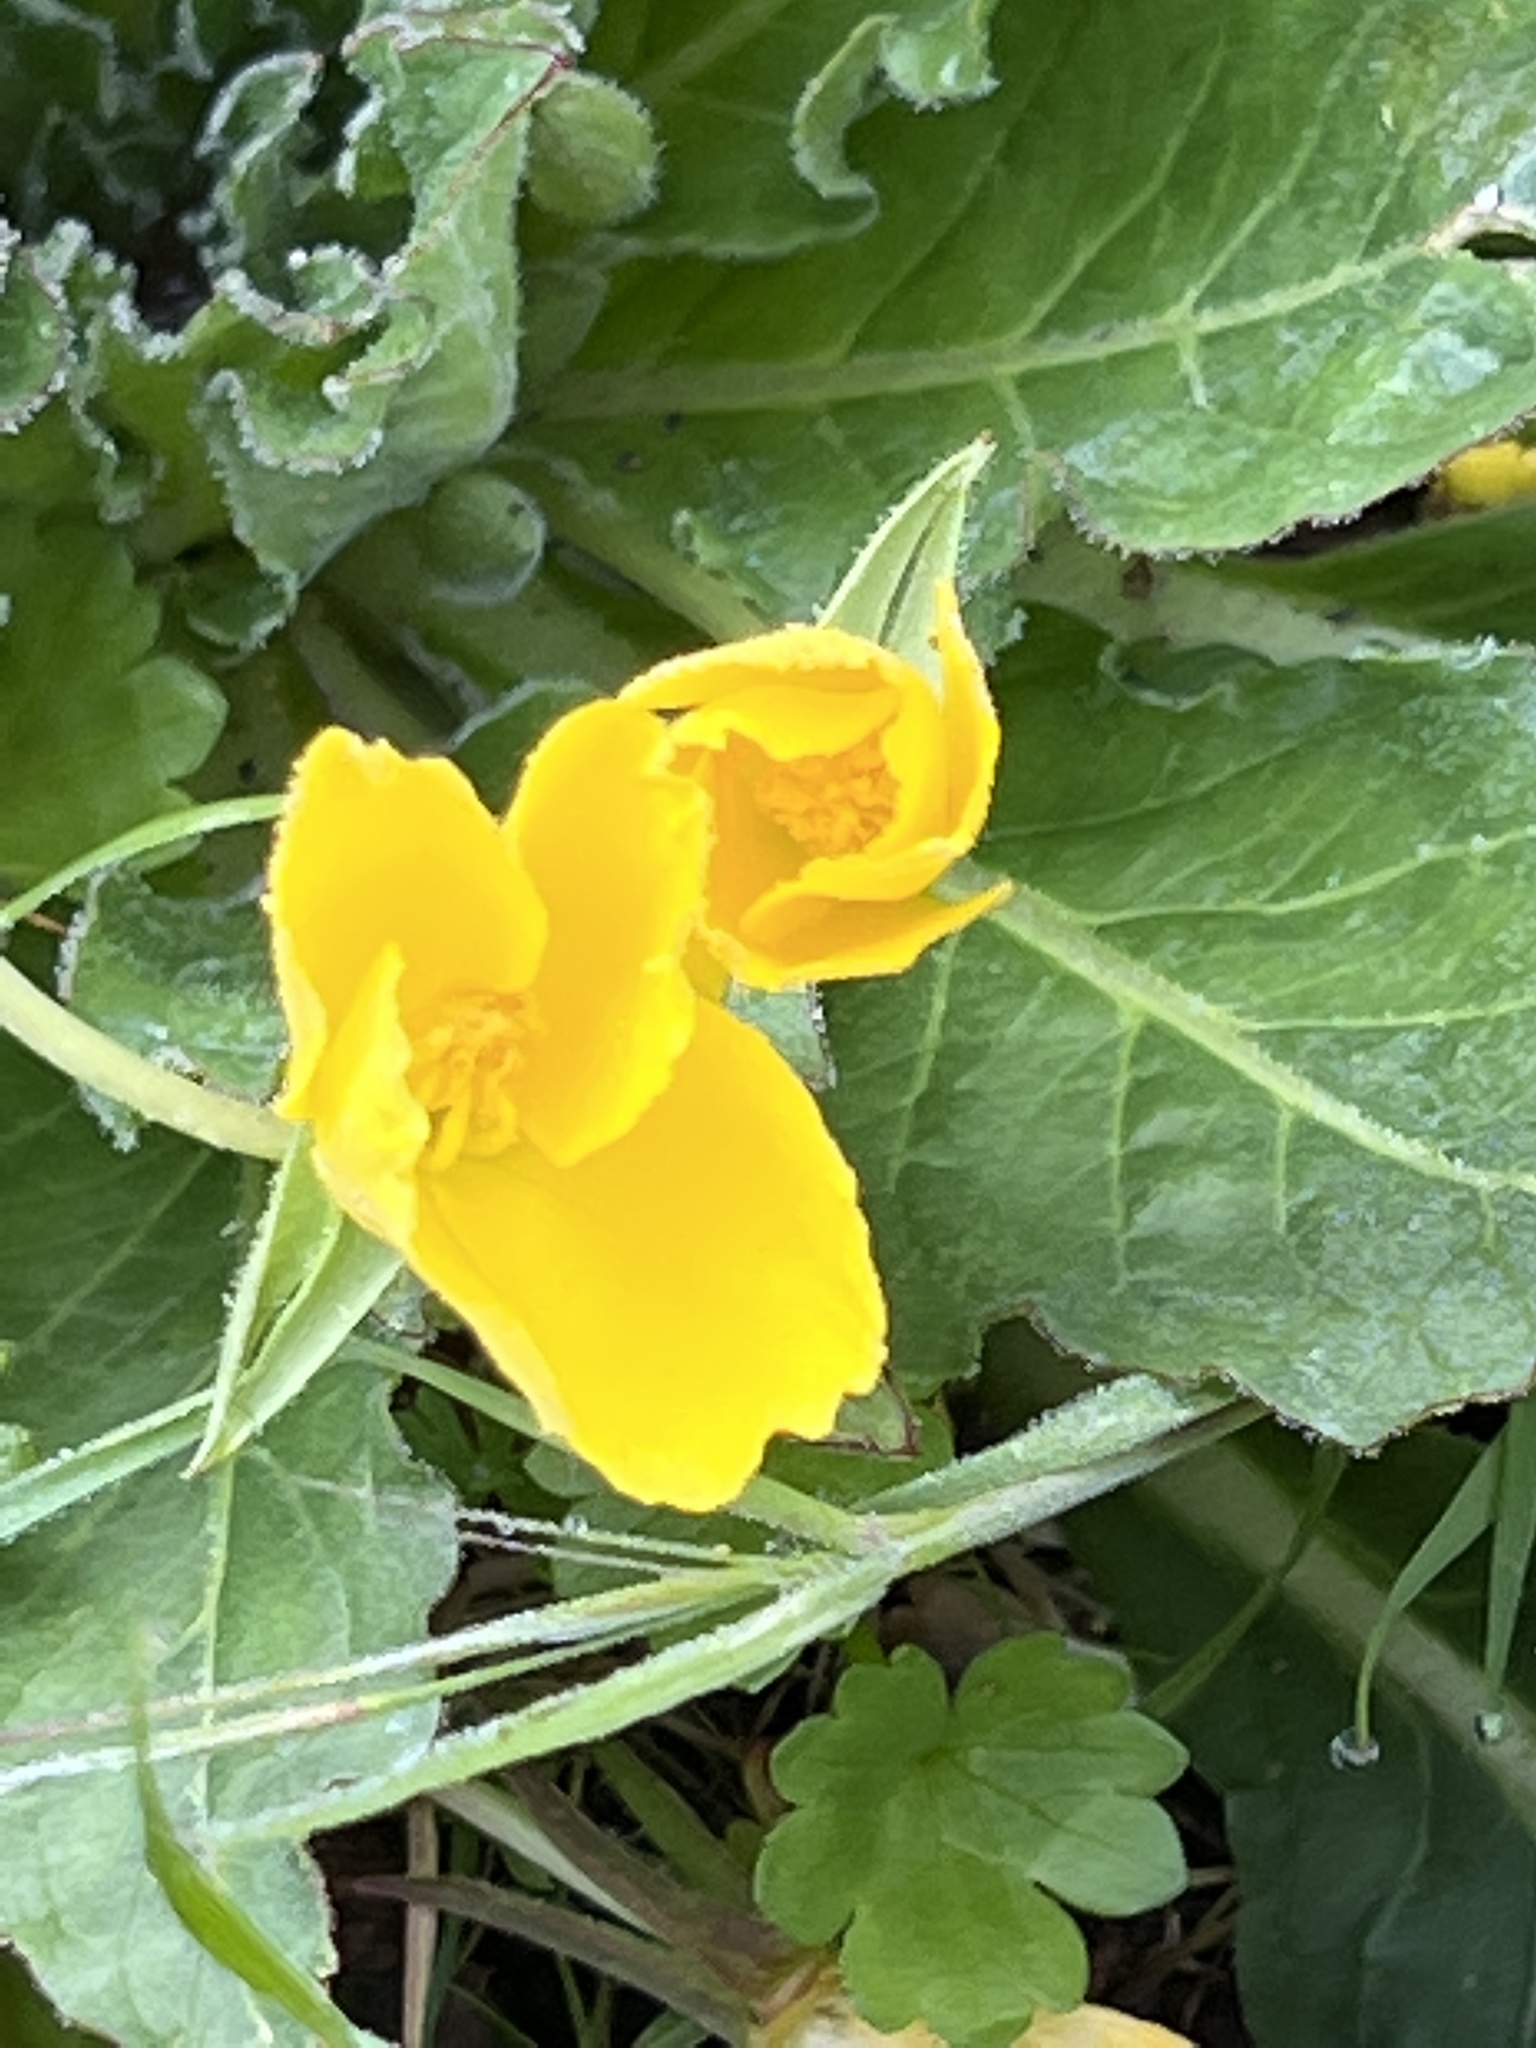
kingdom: Plantae
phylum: Tracheophyta
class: Magnoliopsida
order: Myrtales
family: Onagraceae
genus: Taraxia
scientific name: Taraxia ovata
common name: Goldeneggs
